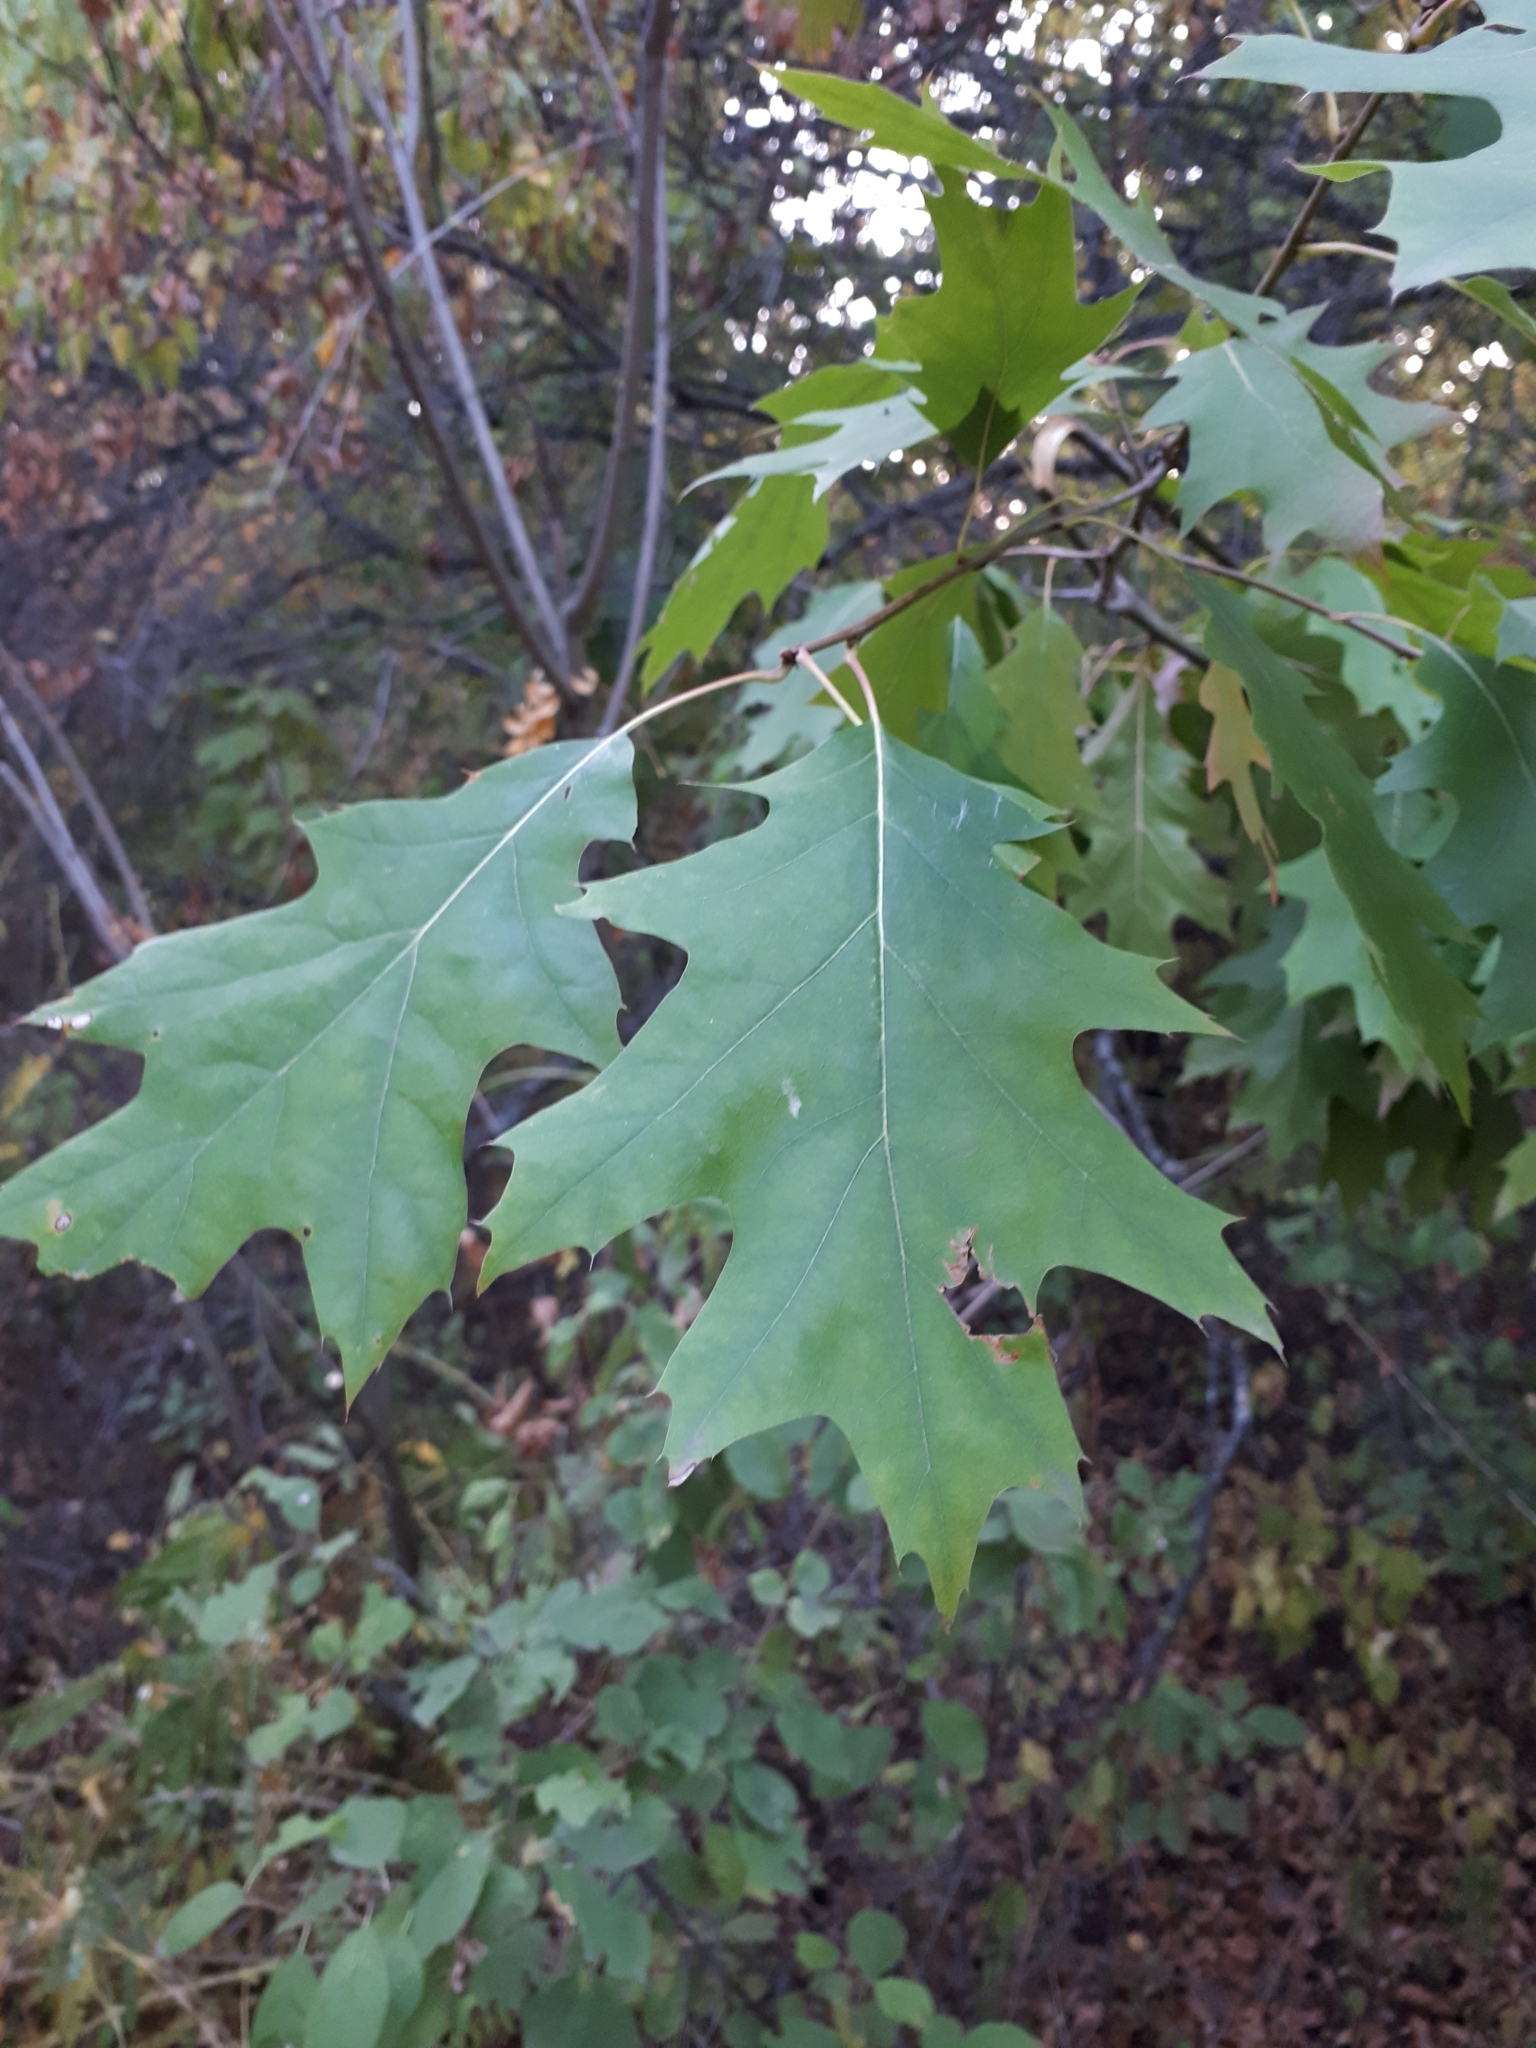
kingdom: Plantae
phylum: Tracheophyta
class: Magnoliopsida
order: Fagales
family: Fagaceae
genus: Quercus
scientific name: Quercus rubra
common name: Red oak
